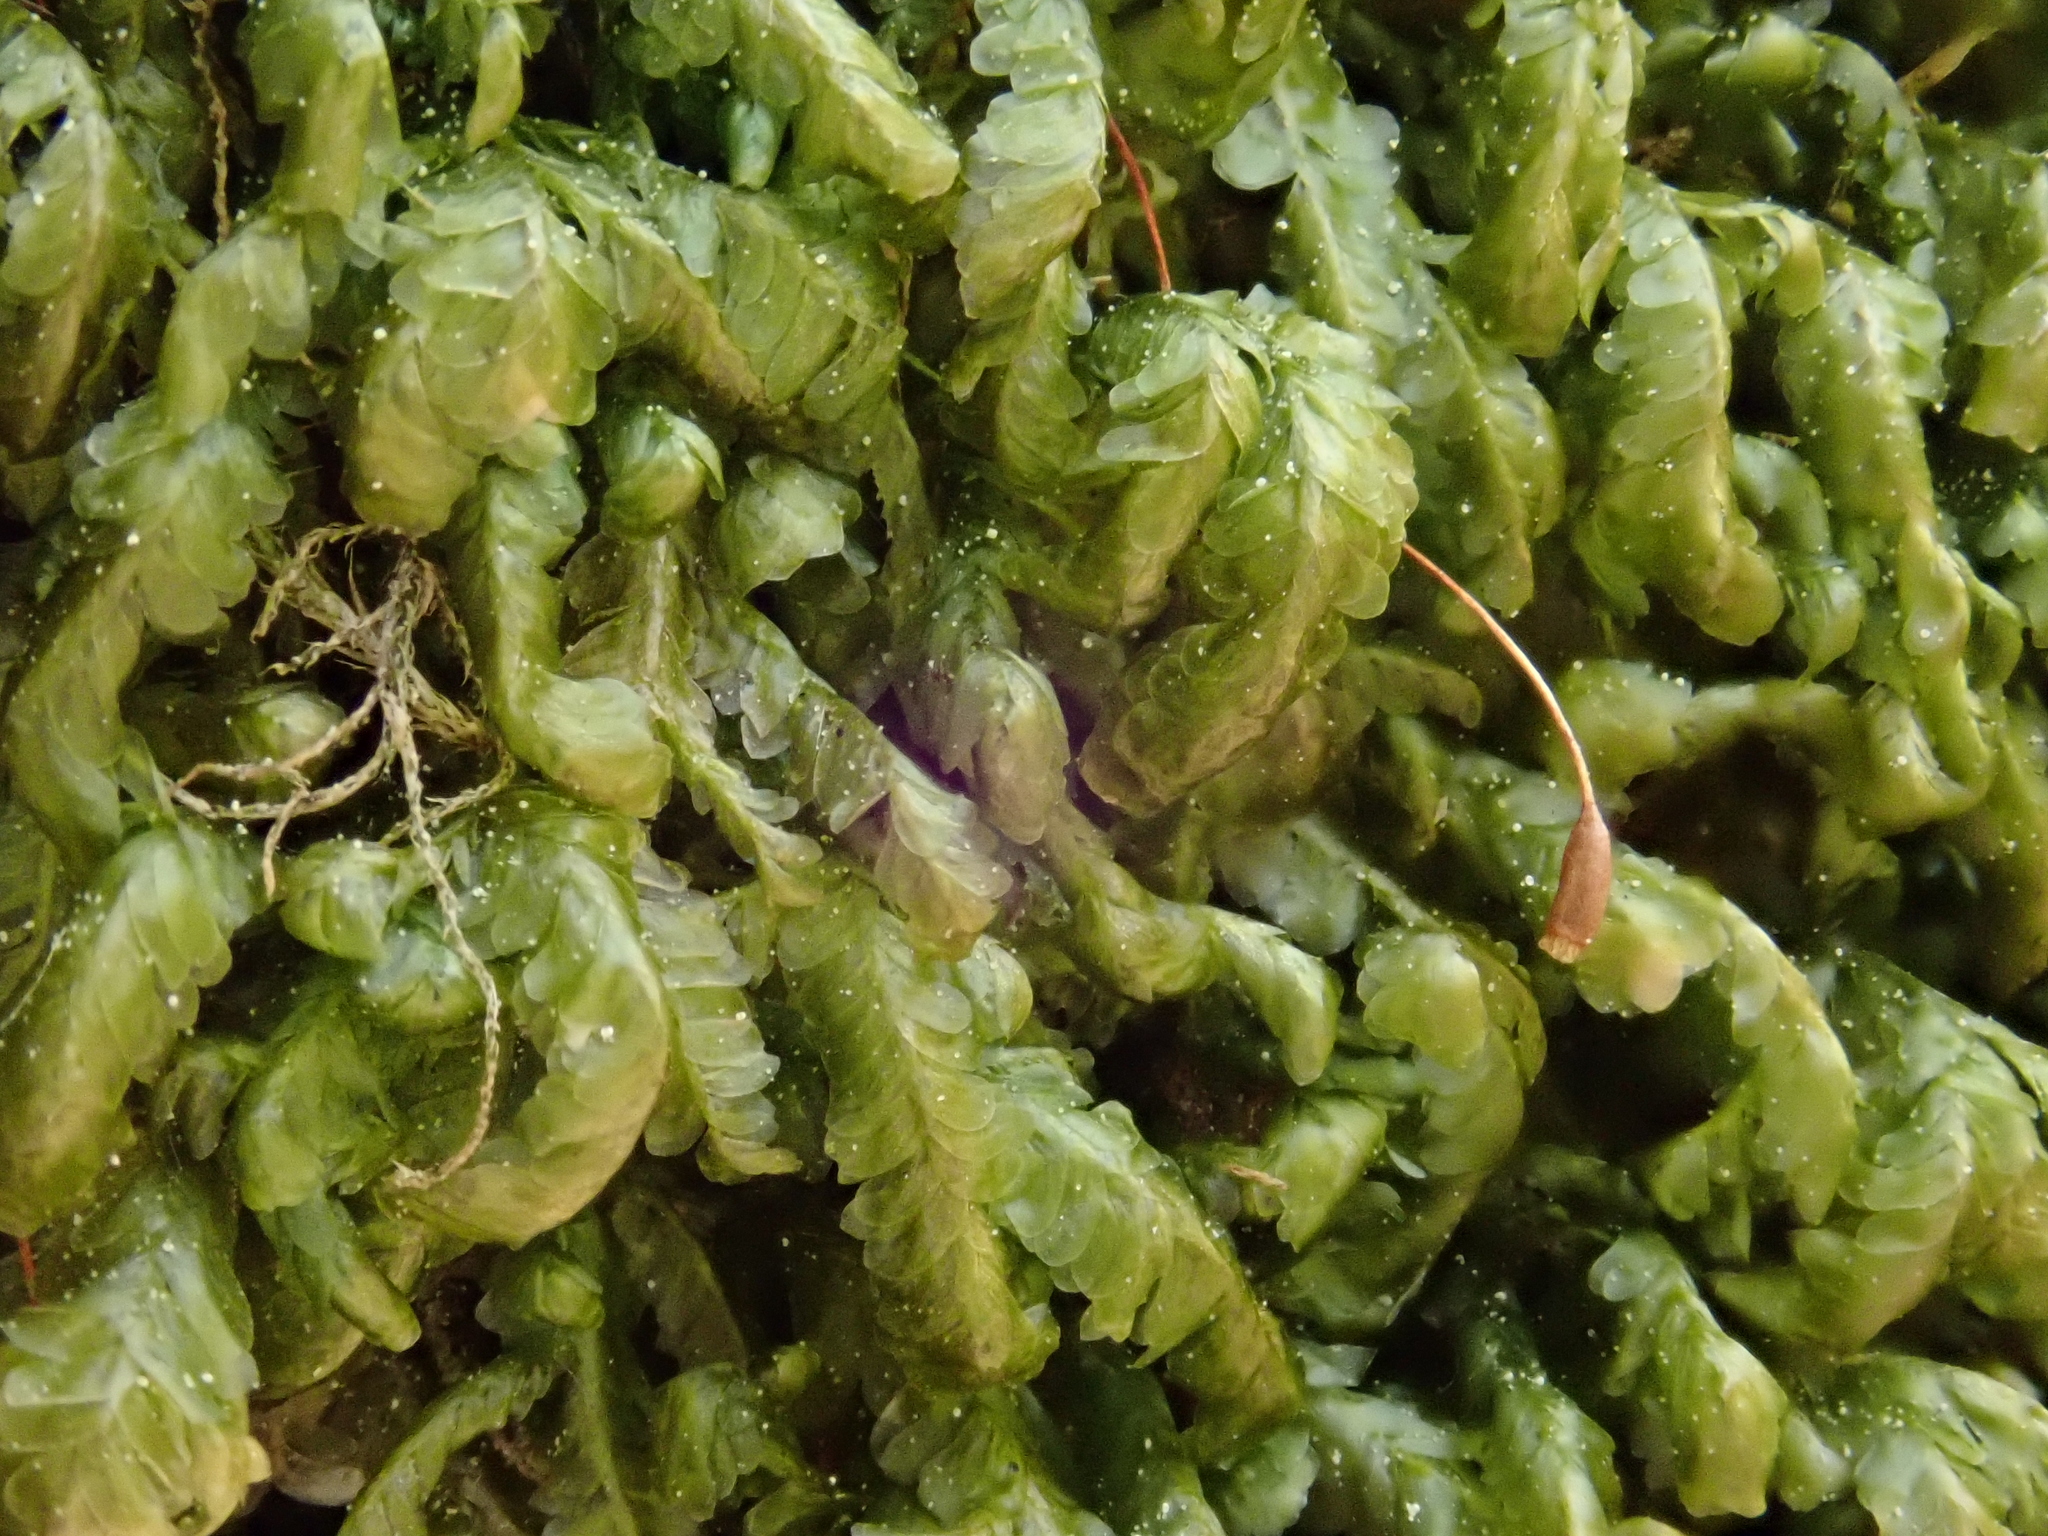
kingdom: Plantae
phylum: Bryophyta
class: Bryopsida
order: Hypnales
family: Neckeraceae
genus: Homalia
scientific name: Homalia trichomanoides
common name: Lime homalia moss
